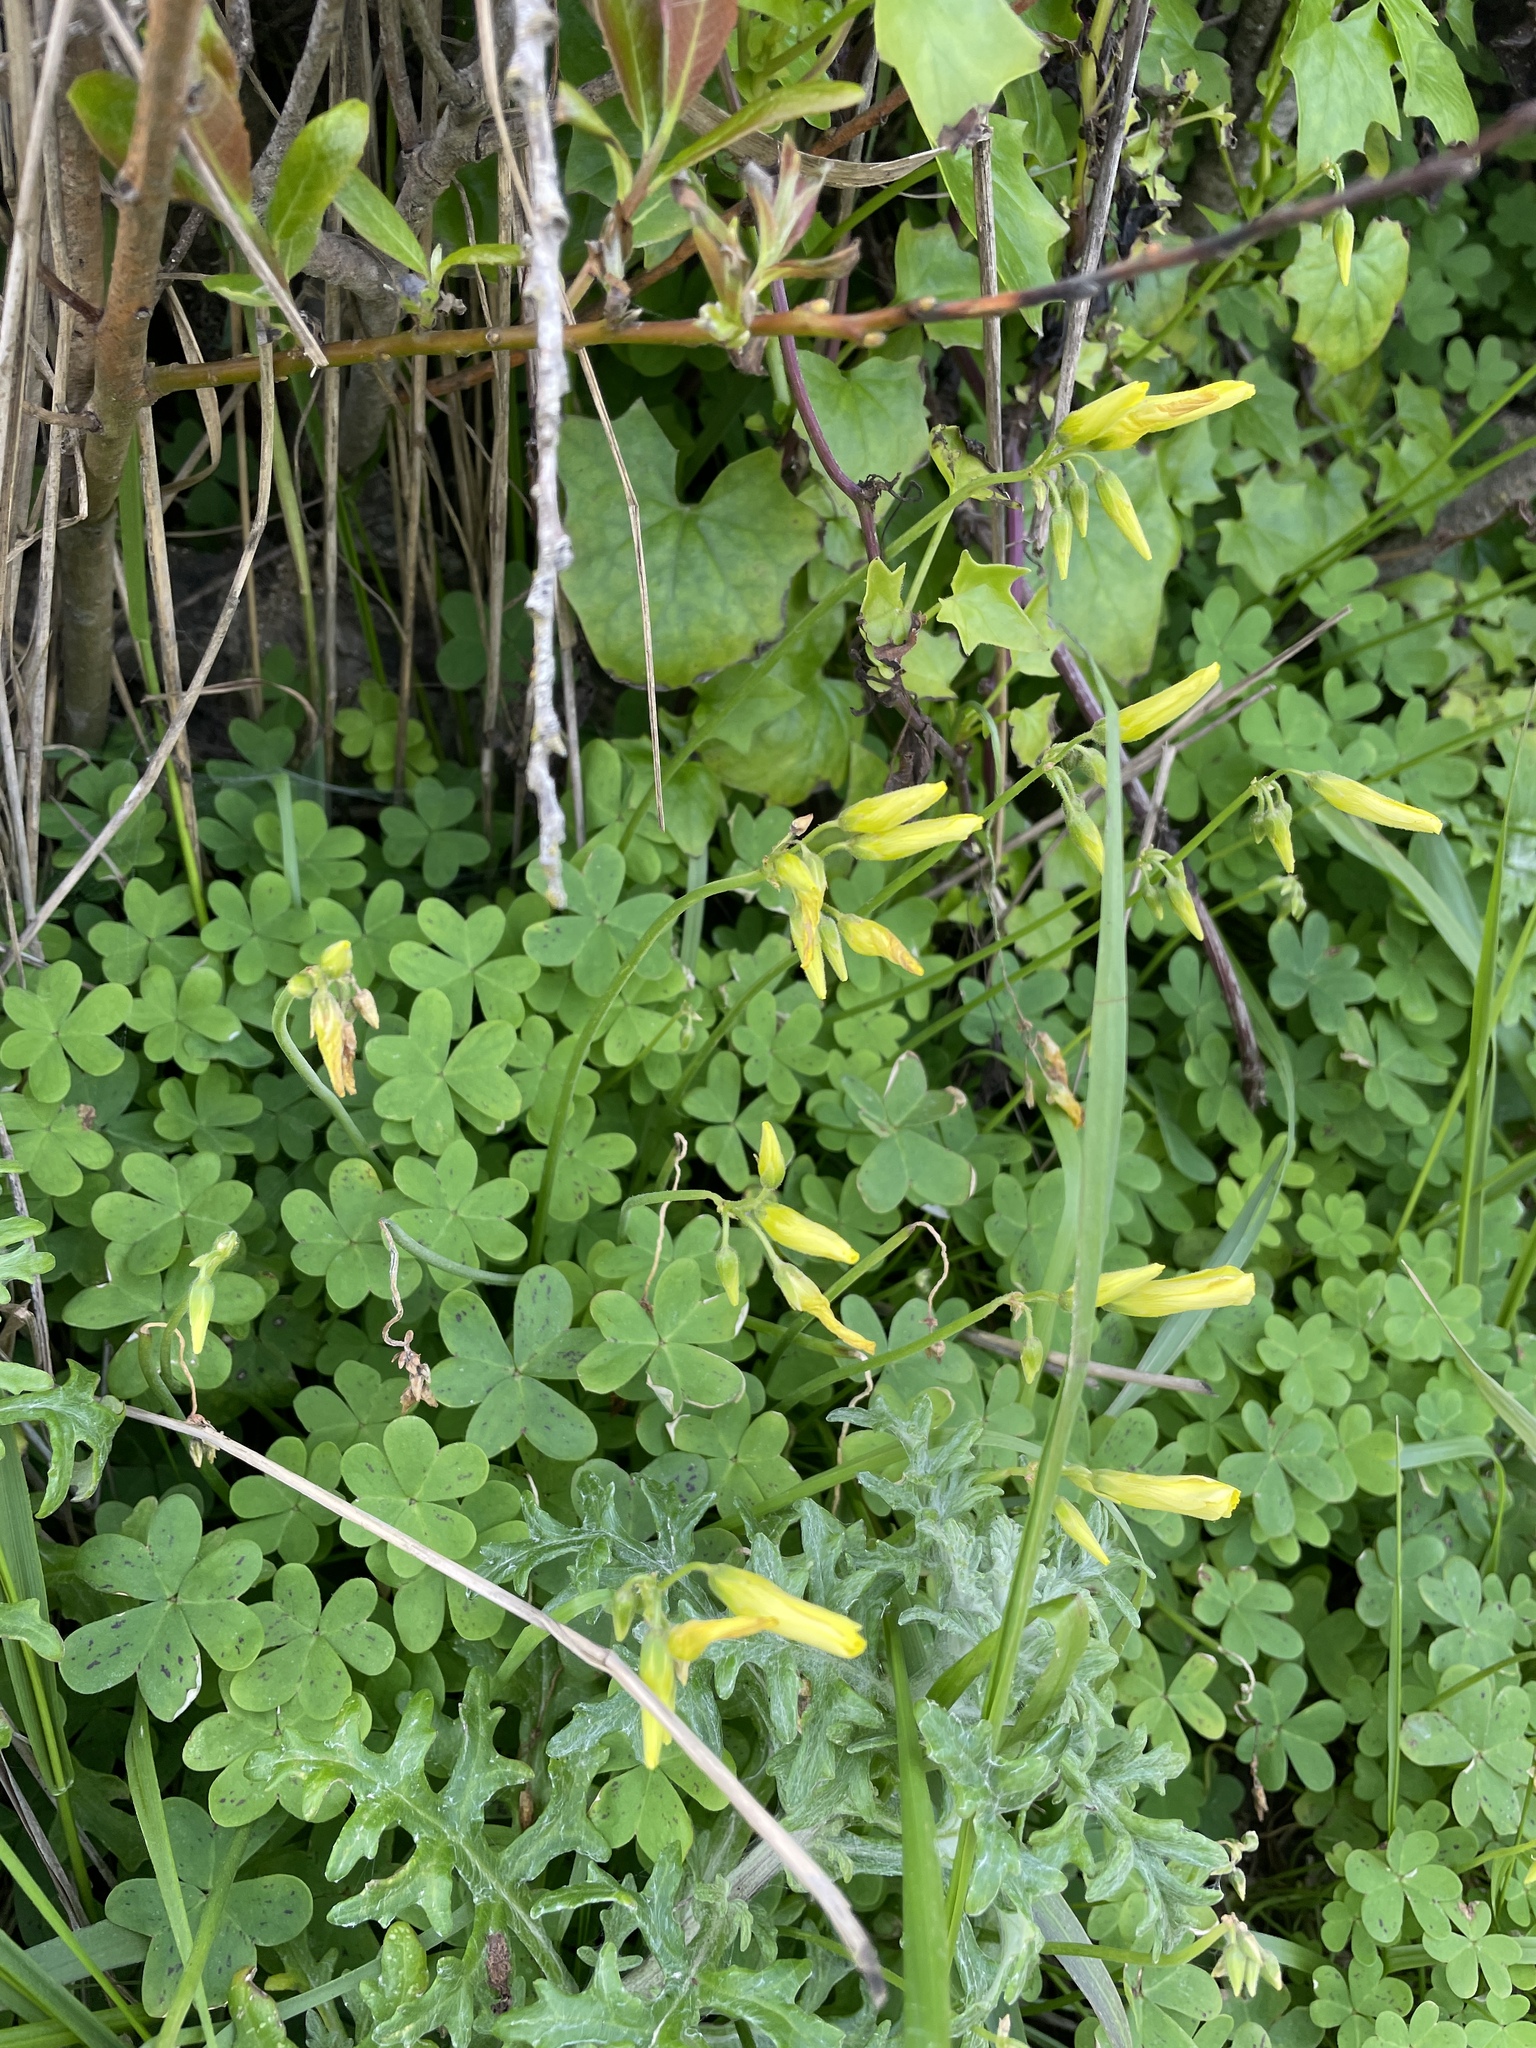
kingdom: Plantae
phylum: Tracheophyta
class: Magnoliopsida
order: Oxalidales
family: Oxalidaceae
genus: Oxalis
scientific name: Oxalis pes-caprae
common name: Bermuda-buttercup
